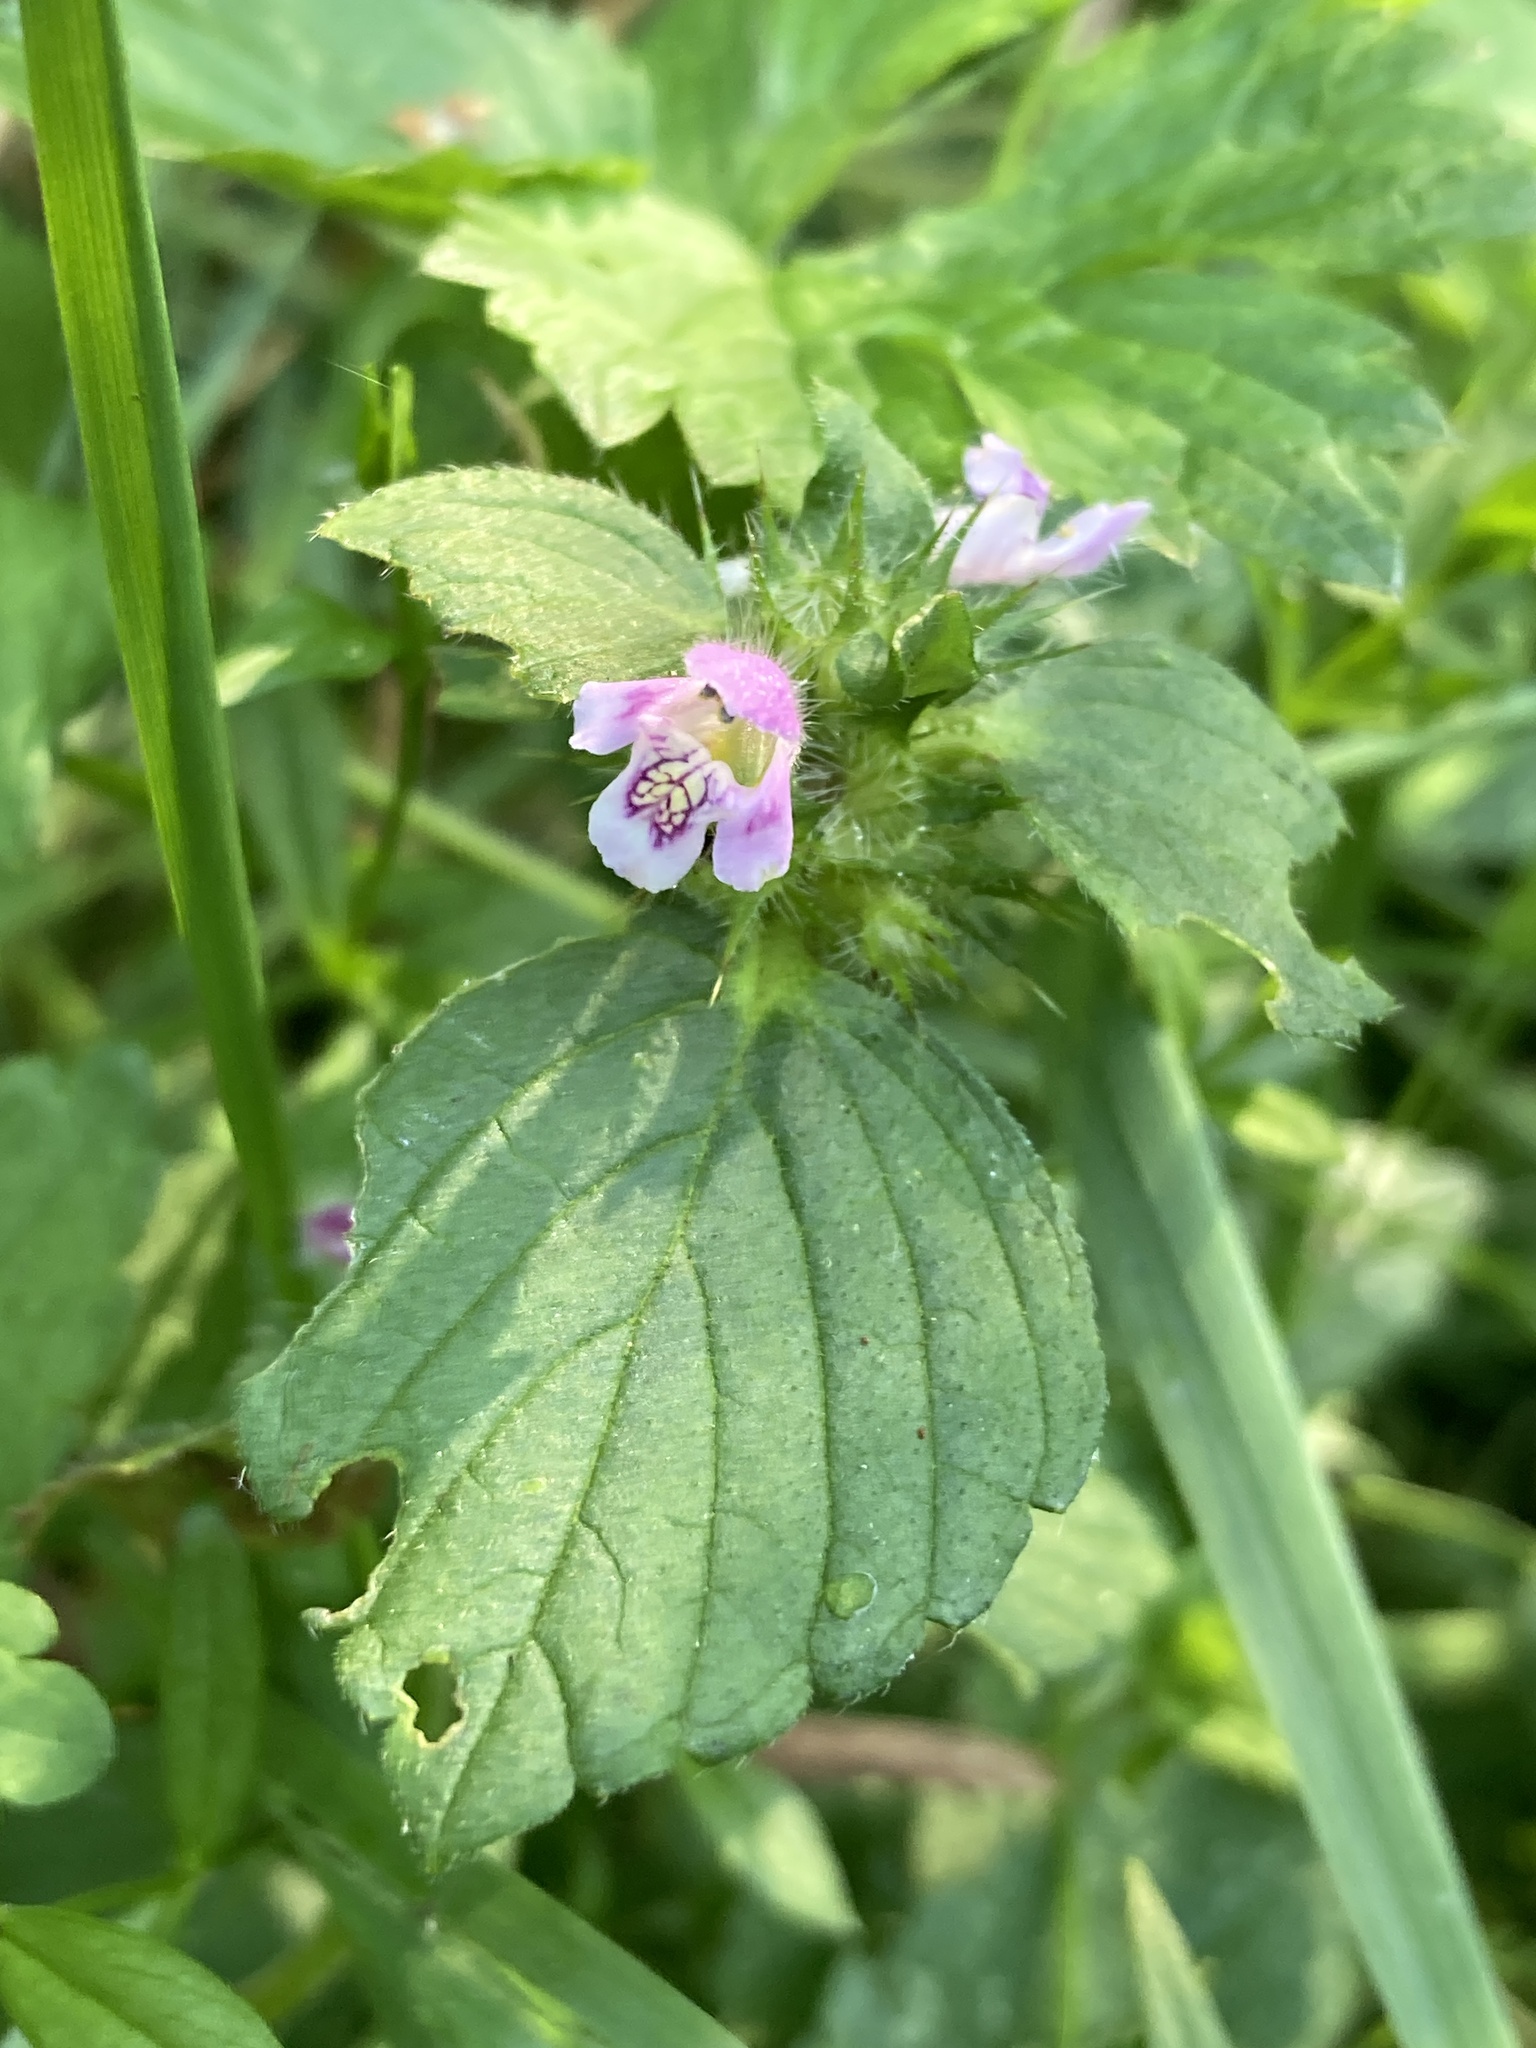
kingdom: Plantae
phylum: Tracheophyta
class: Magnoliopsida
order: Lamiales
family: Lamiaceae
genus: Galeopsis
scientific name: Galeopsis tetrahit
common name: Common hemp-nettle
